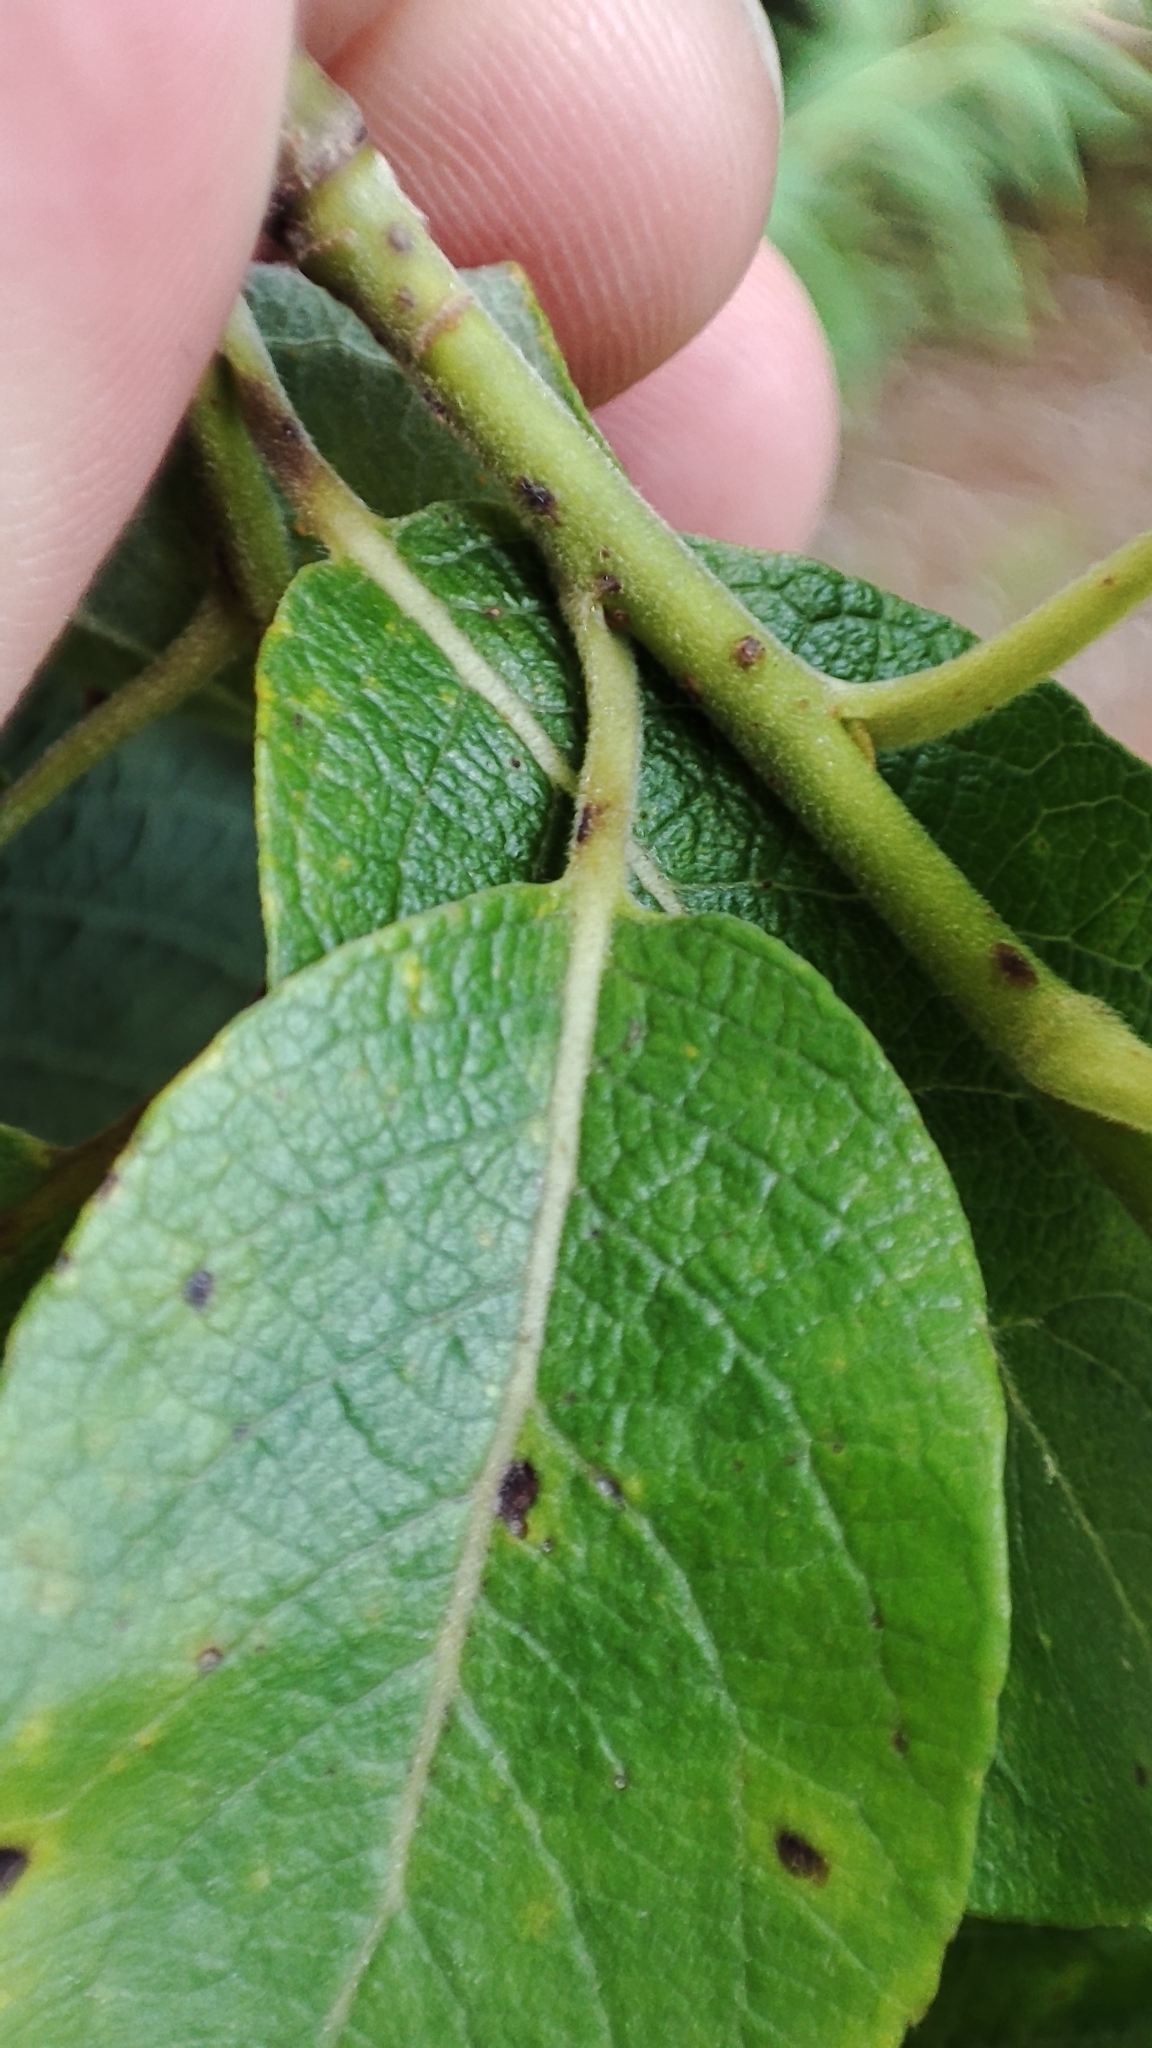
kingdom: Plantae
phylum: Tracheophyta
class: Magnoliopsida
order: Malpighiales
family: Salicaceae
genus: Salix
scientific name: Salix caprea
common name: Goat willow
